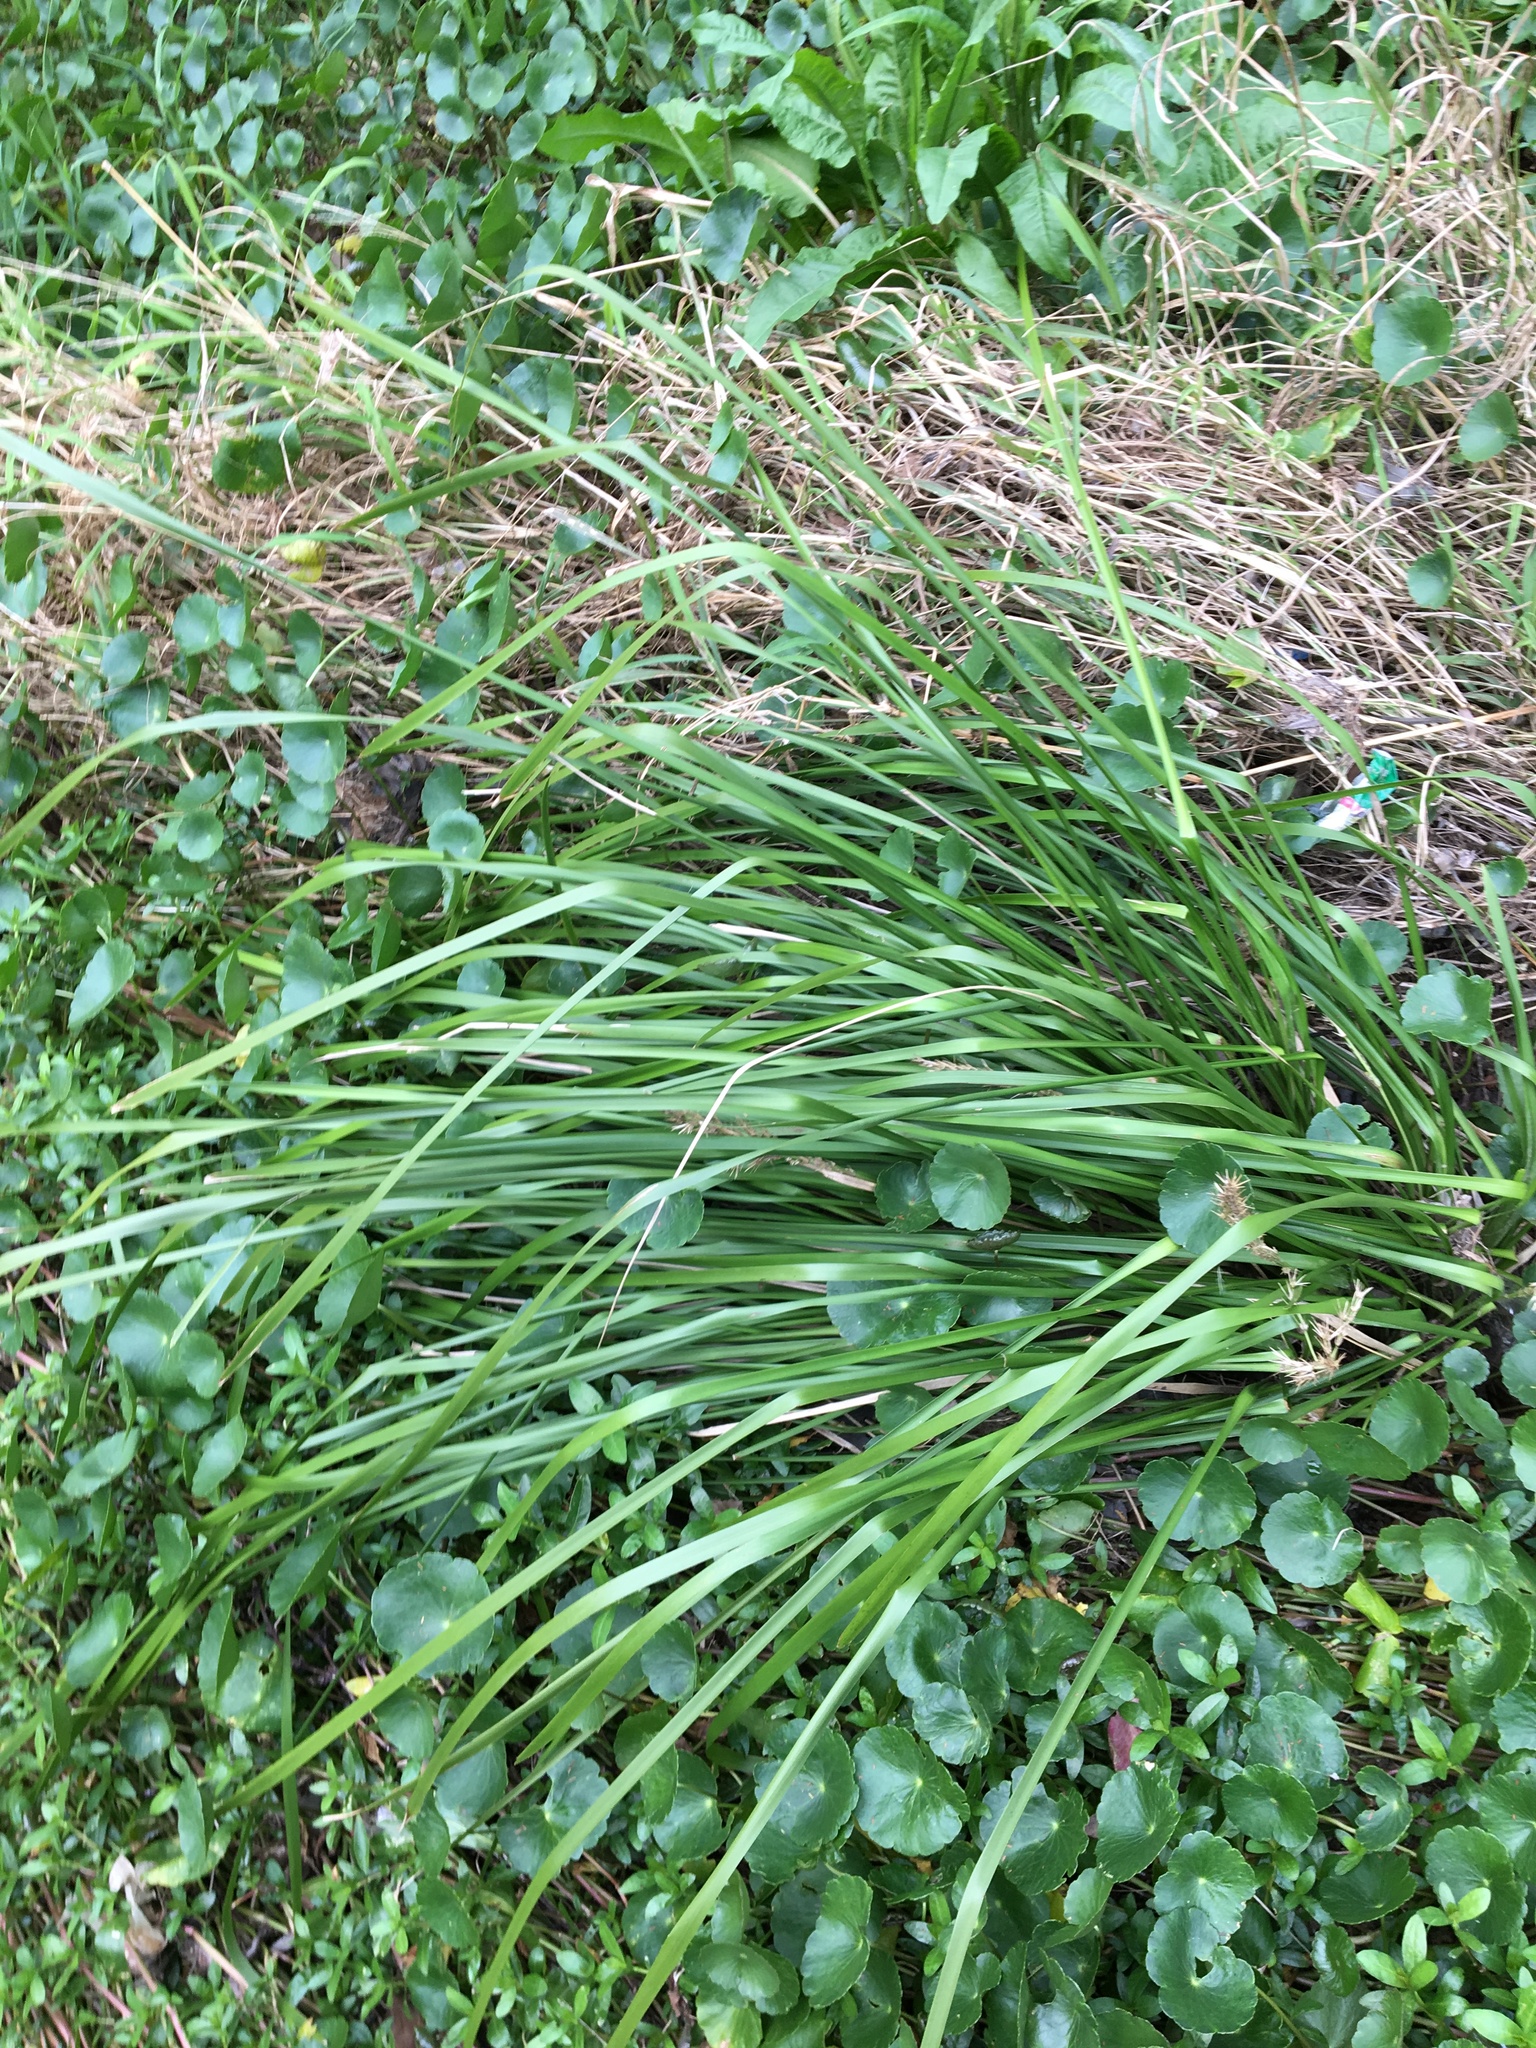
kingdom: Plantae
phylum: Tracheophyta
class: Liliopsida
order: Asparagales
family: Asparagaceae
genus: Lomandra
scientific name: Lomandra longifolia
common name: Longleaf mat-rush
